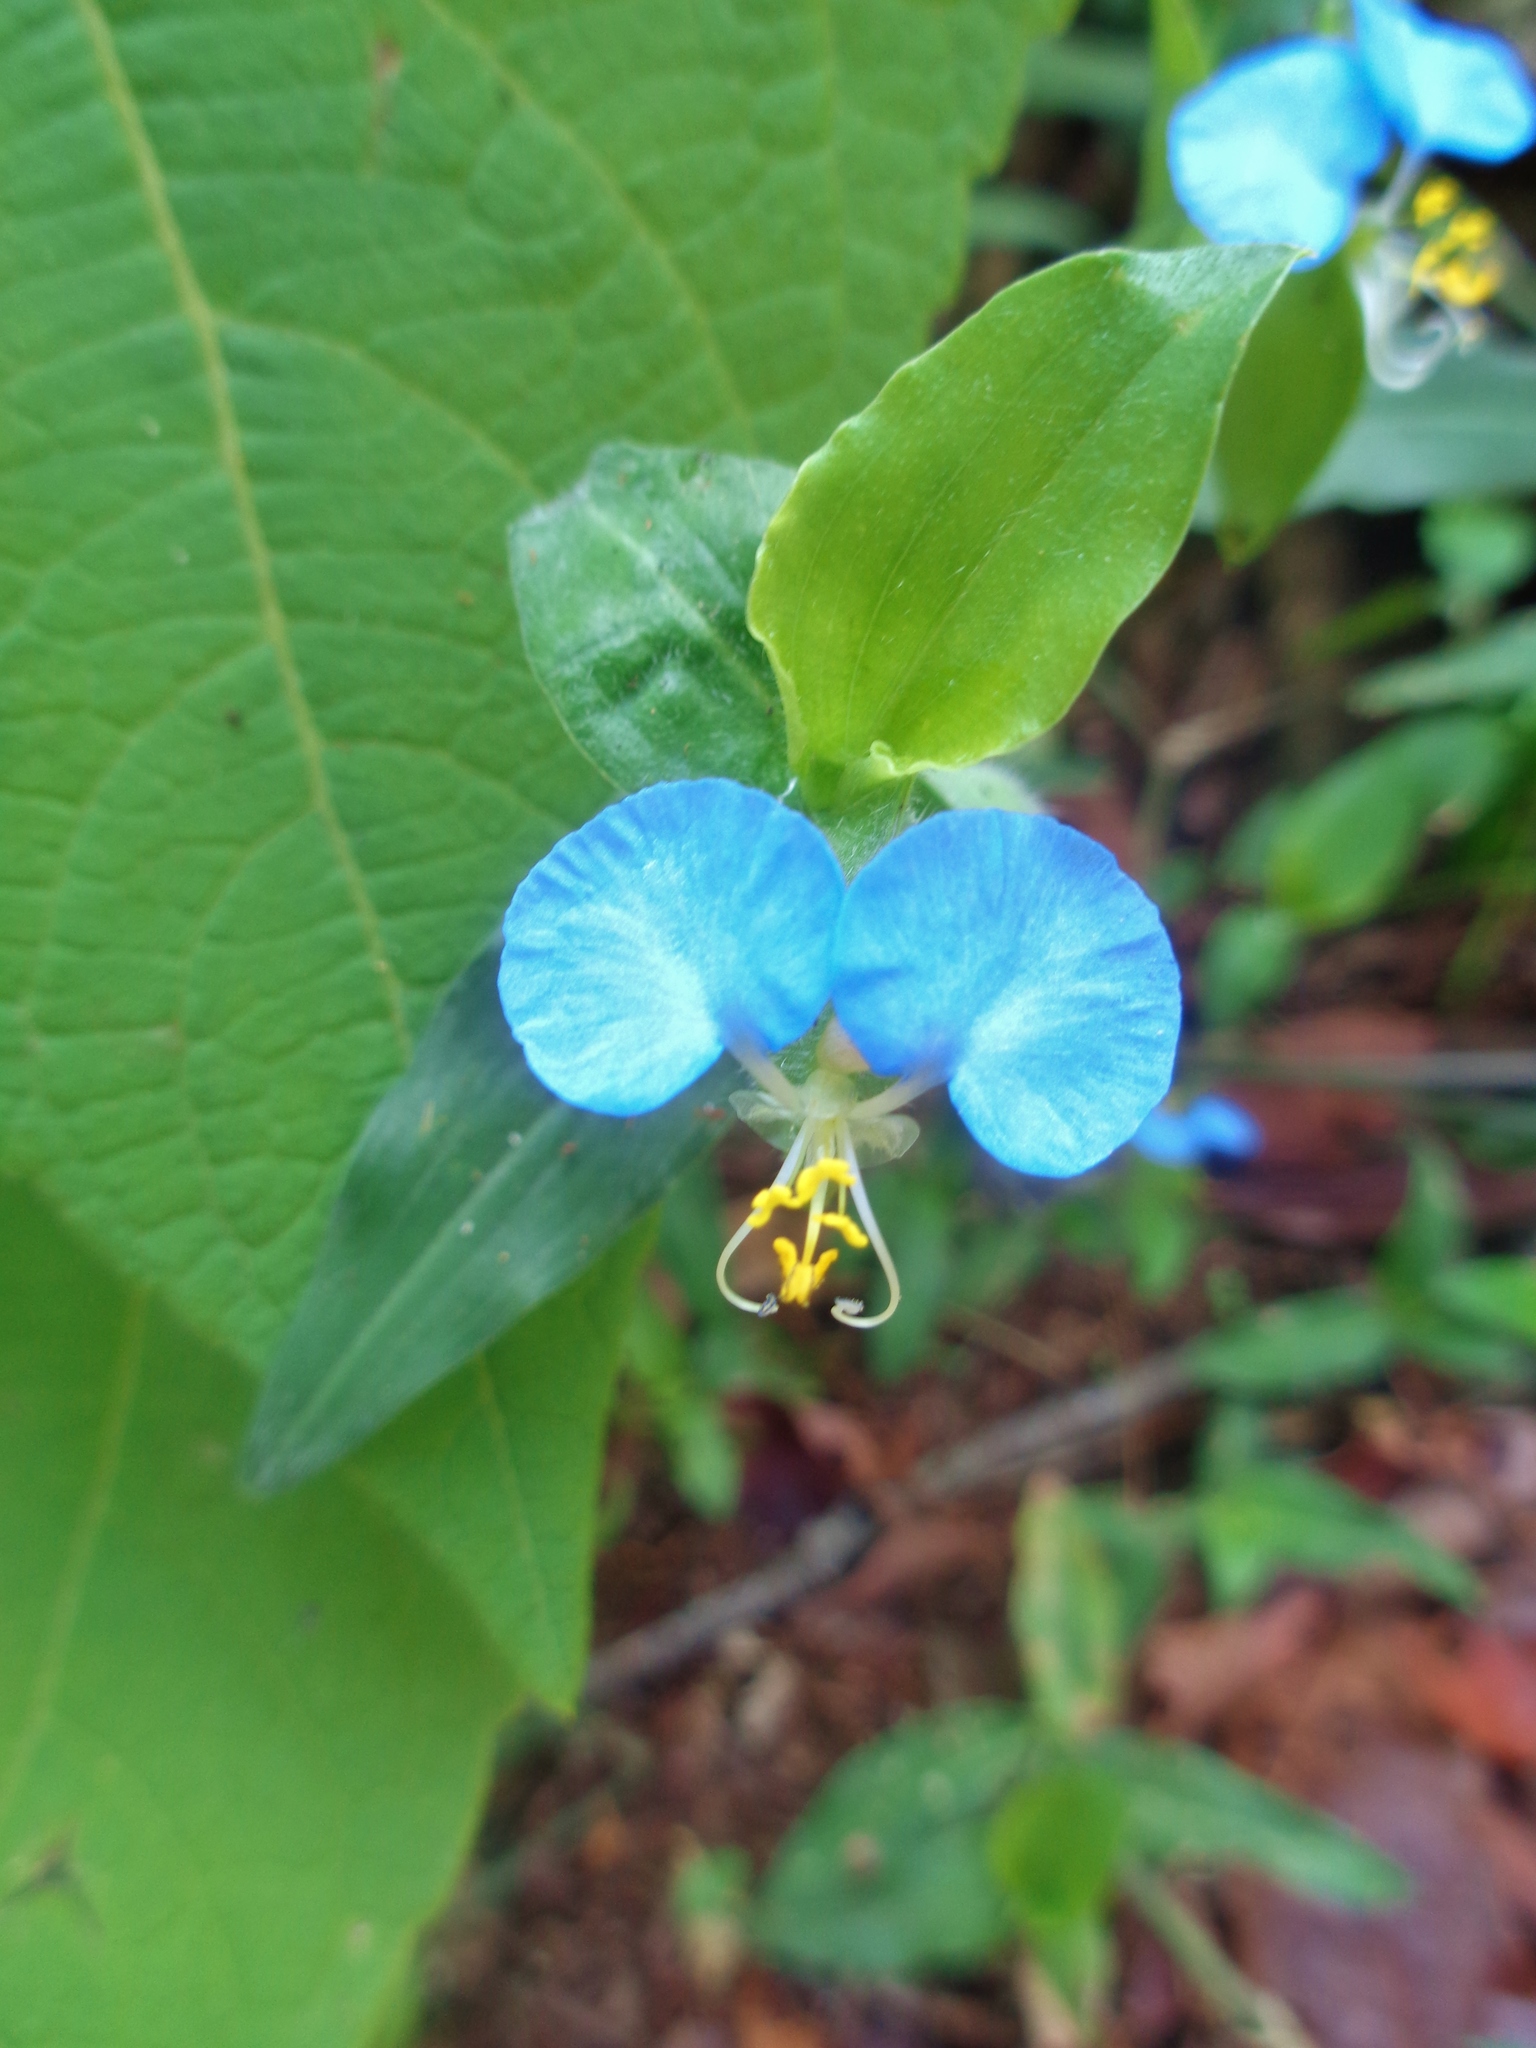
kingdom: Plantae
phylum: Tracheophyta
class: Liliopsida
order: Commelinales
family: Commelinaceae
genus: Commelina
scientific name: Commelina erecta
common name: Blousel blommetjie
